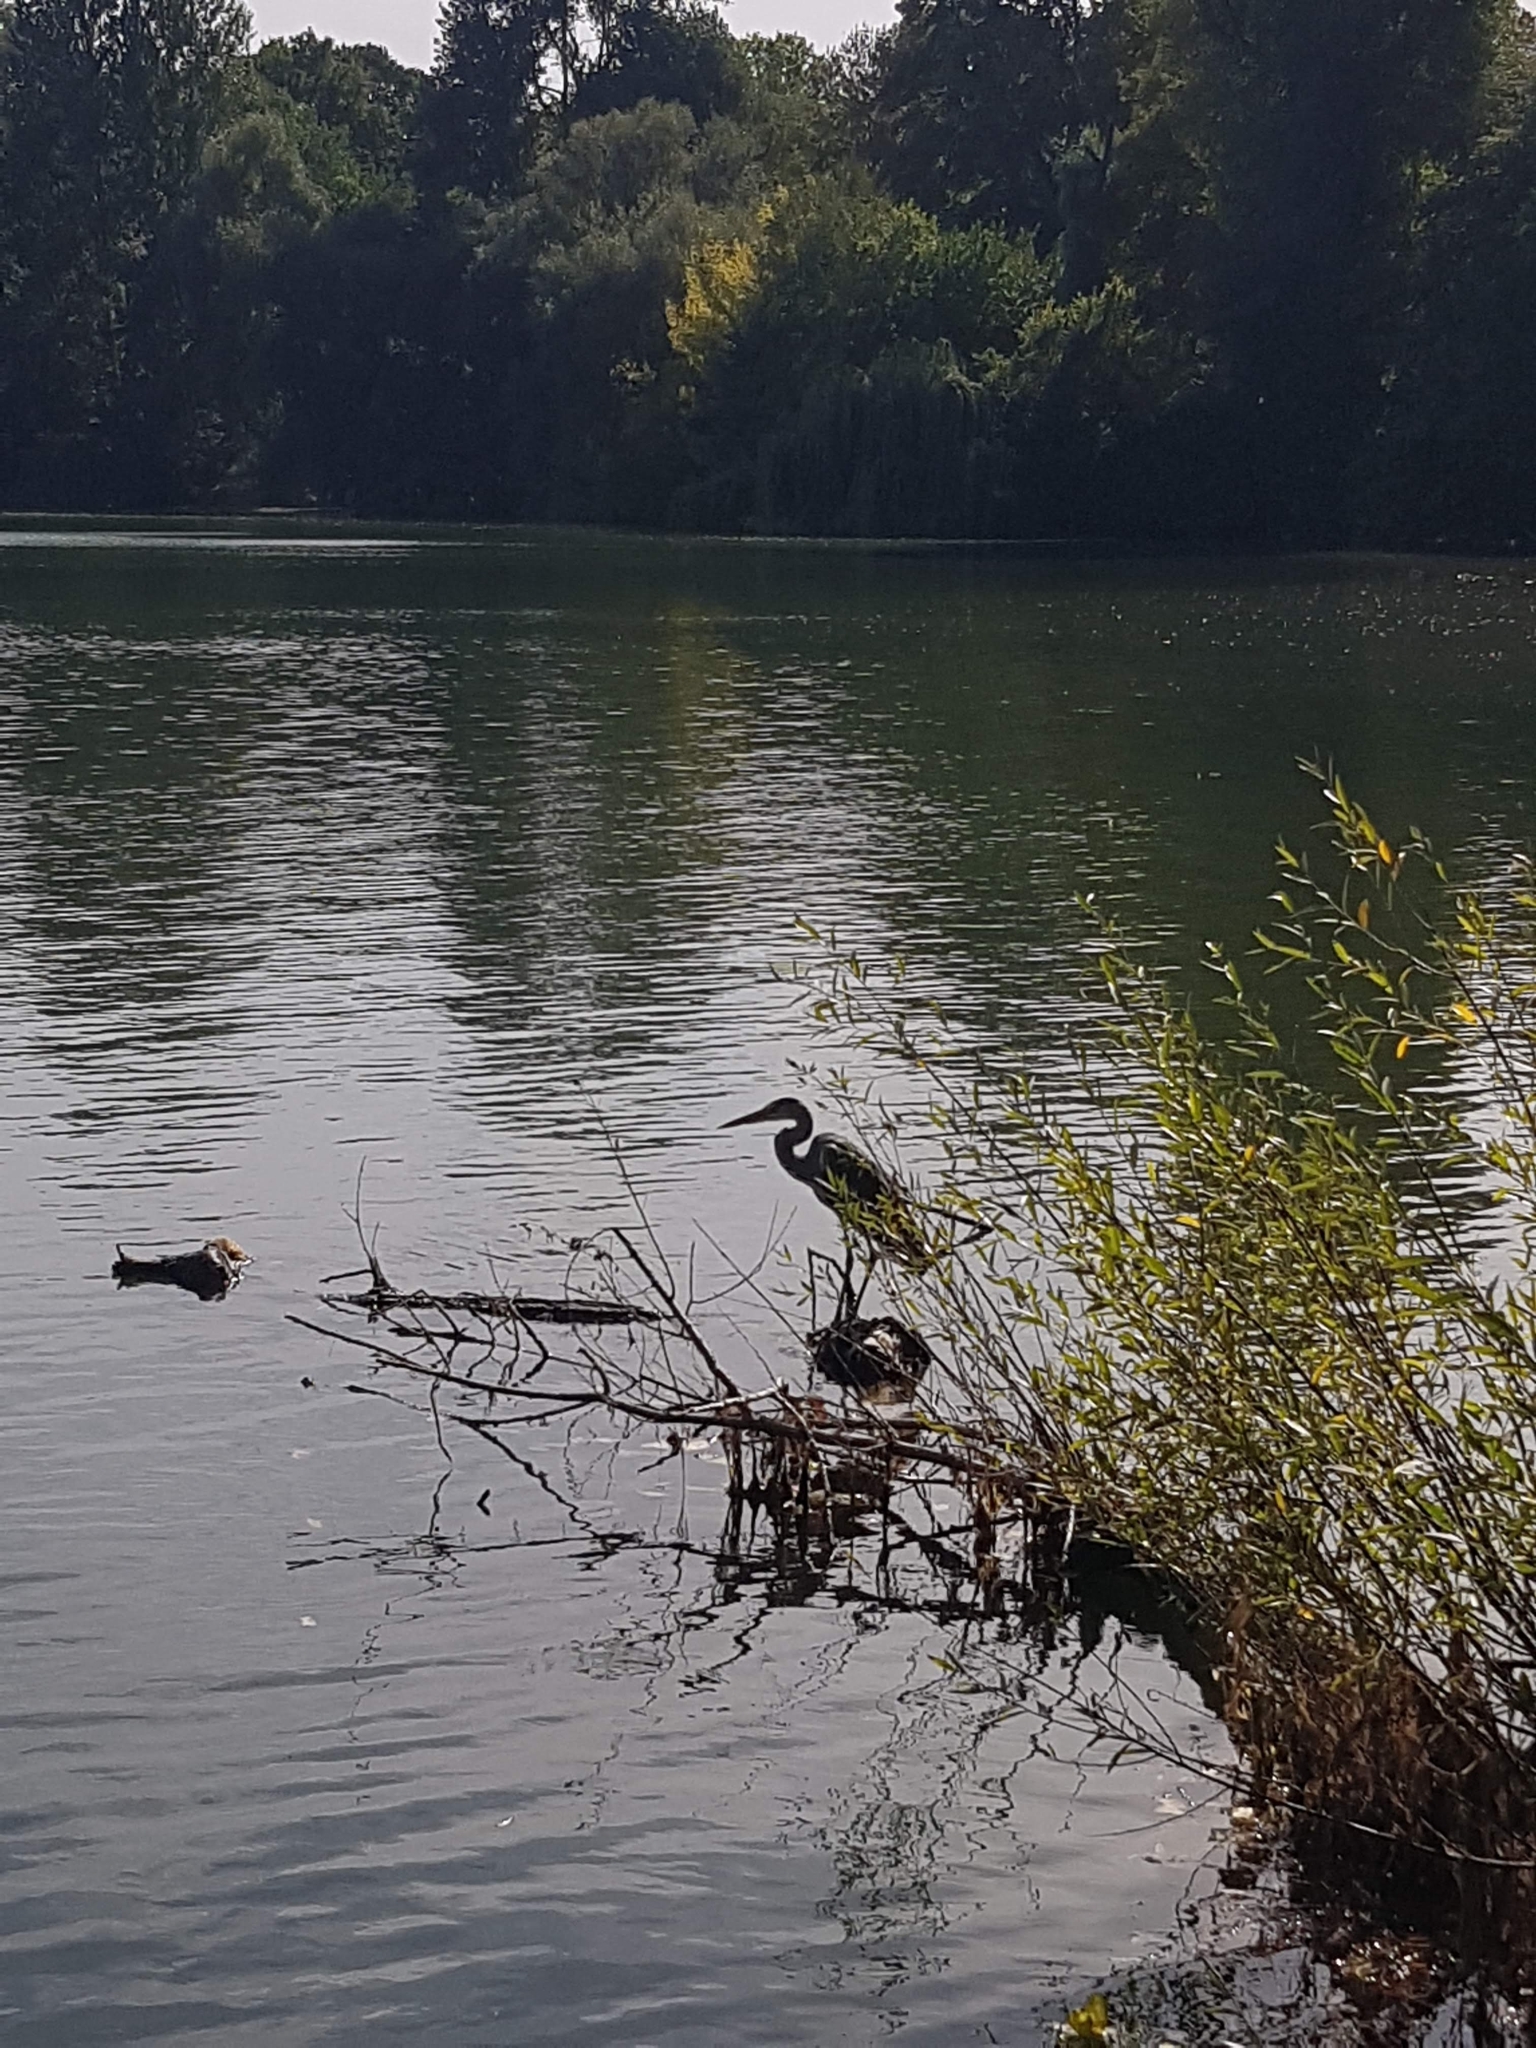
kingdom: Animalia
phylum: Chordata
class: Aves
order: Pelecaniformes
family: Ardeidae
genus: Ardea
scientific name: Ardea cinerea
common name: Grey heron
